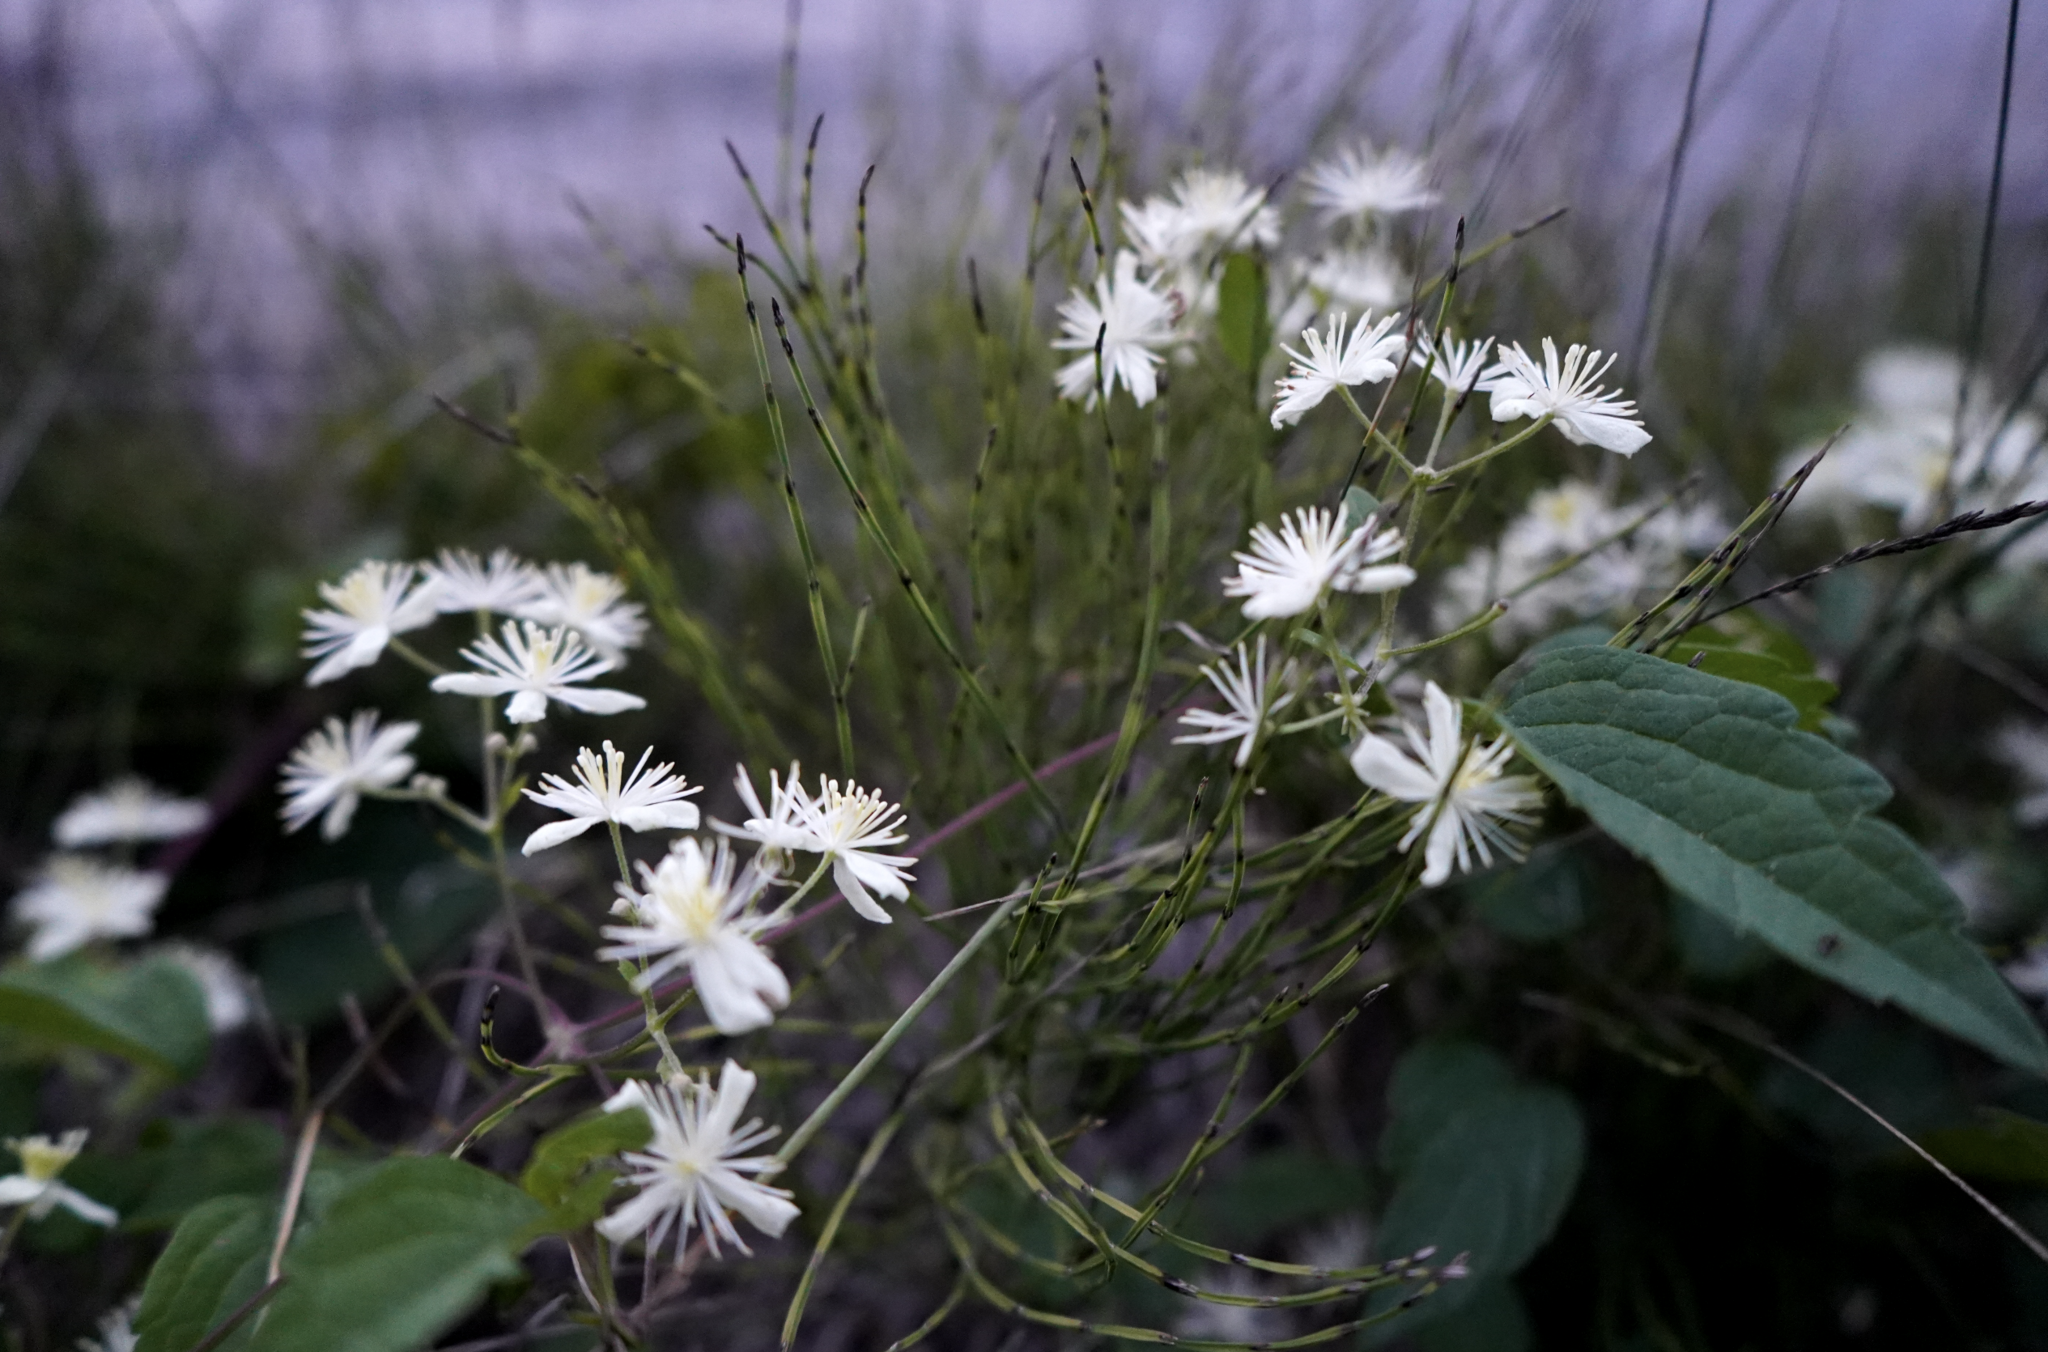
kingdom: Plantae
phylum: Tracheophyta
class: Magnoliopsida
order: Ranunculales
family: Ranunculaceae
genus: Clematis
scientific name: Clematis virginiana
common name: Virgin's-bower
